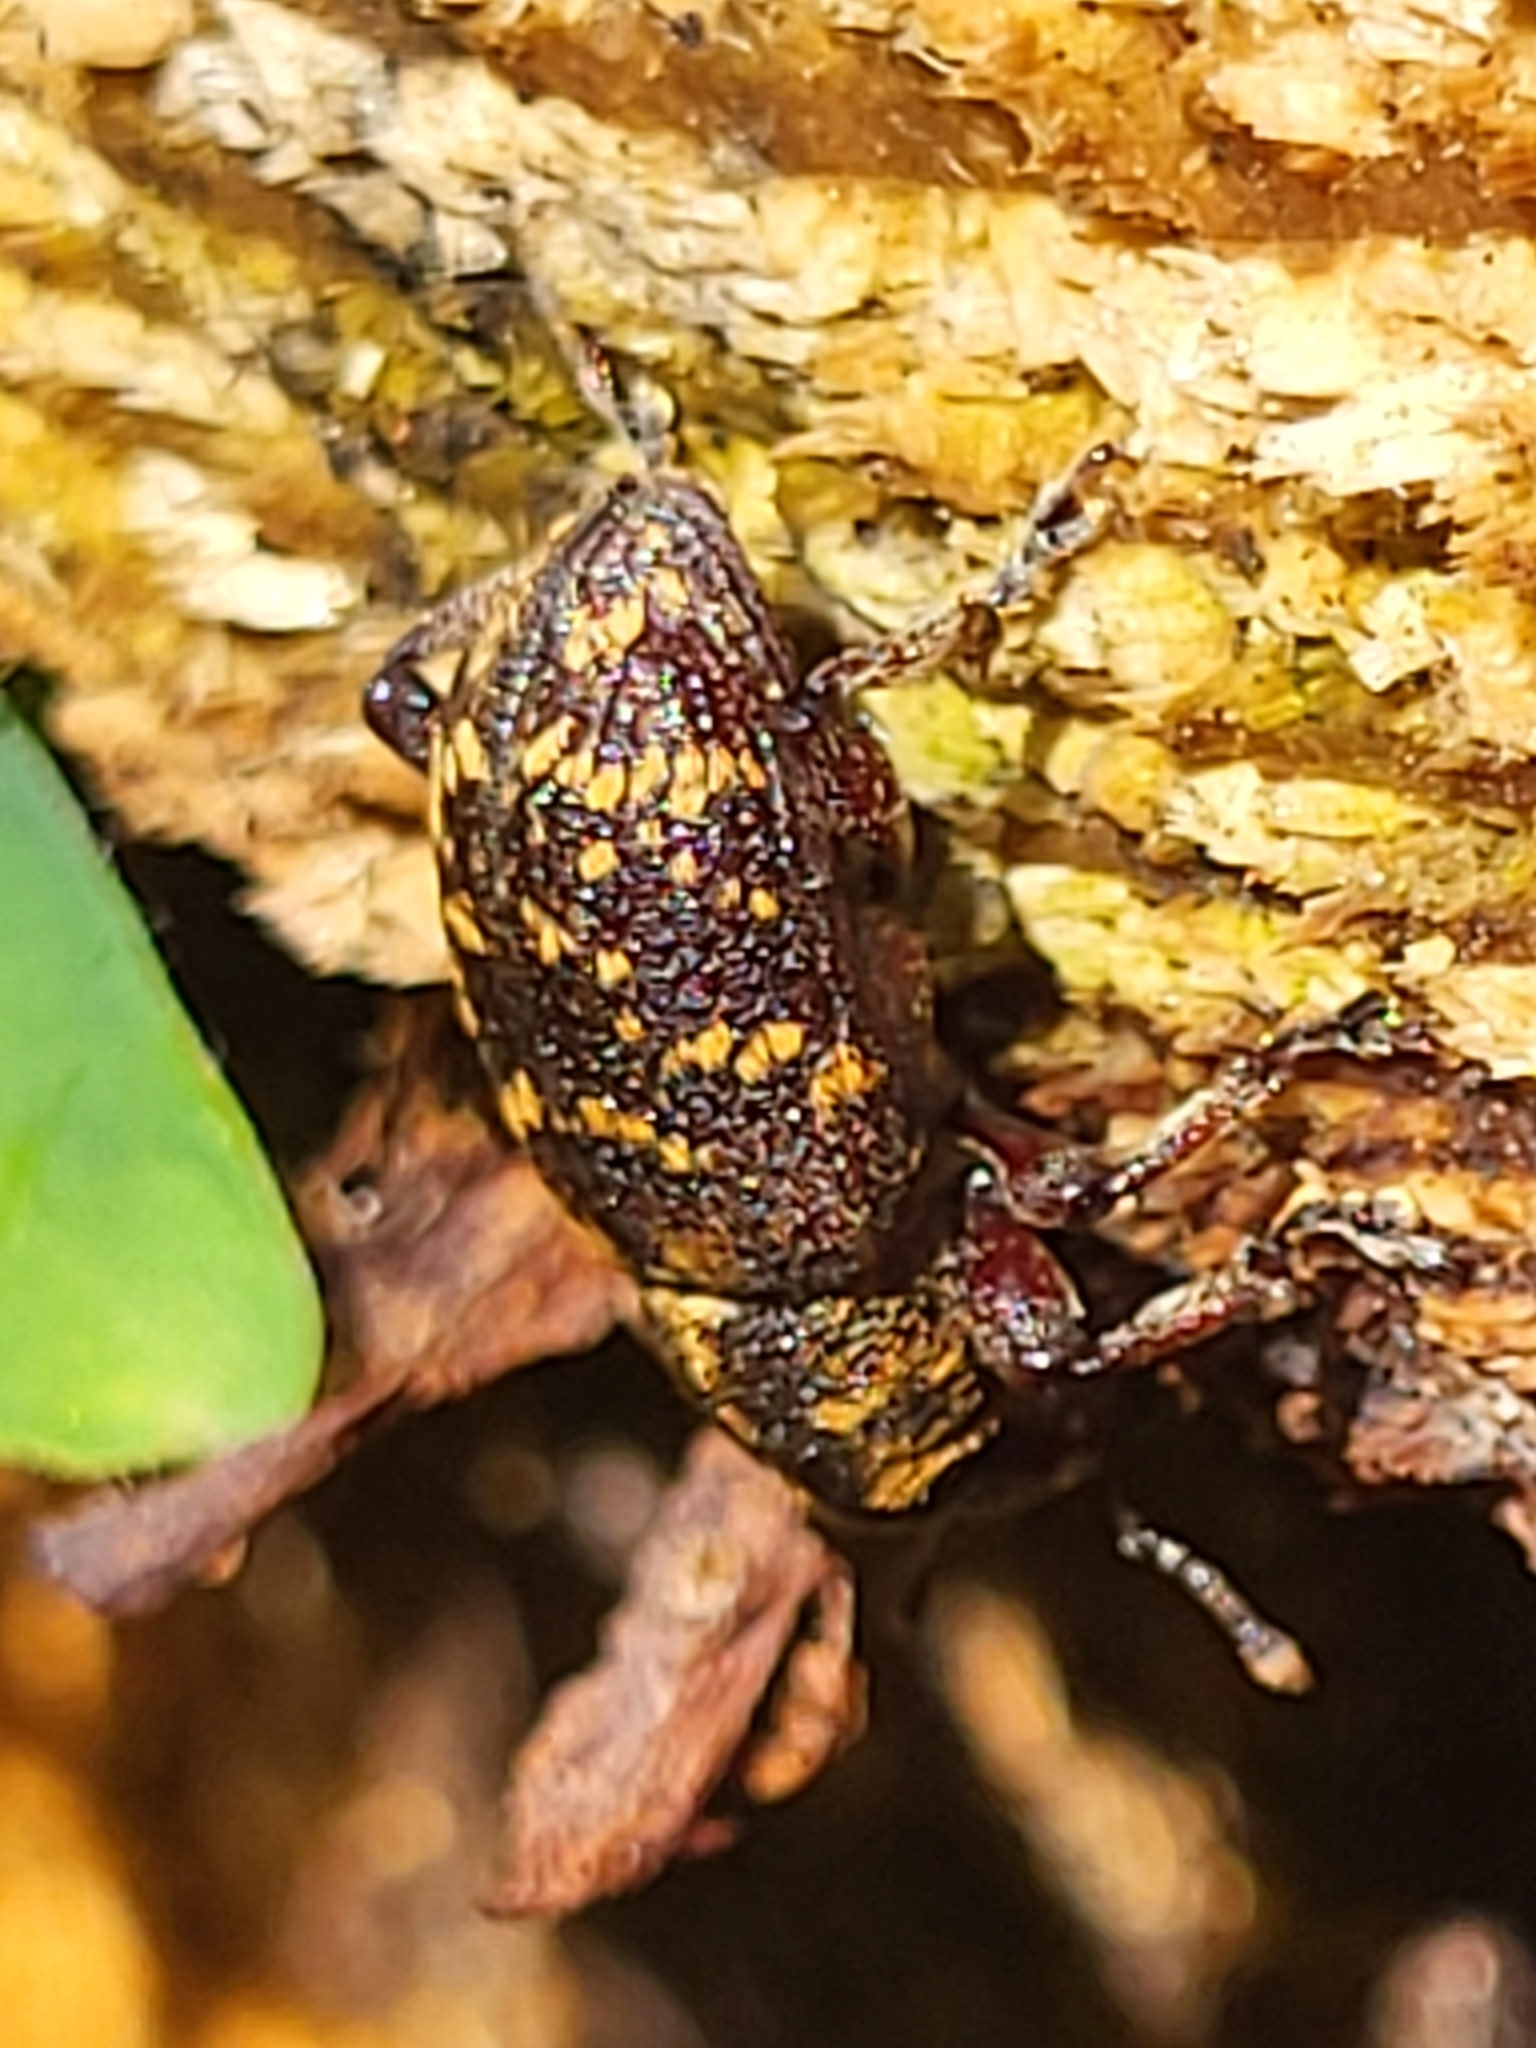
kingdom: Animalia
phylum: Arthropoda
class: Insecta
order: Coleoptera
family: Curculionidae
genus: Hylobius
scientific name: Hylobius abietis
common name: Large pine weevil
